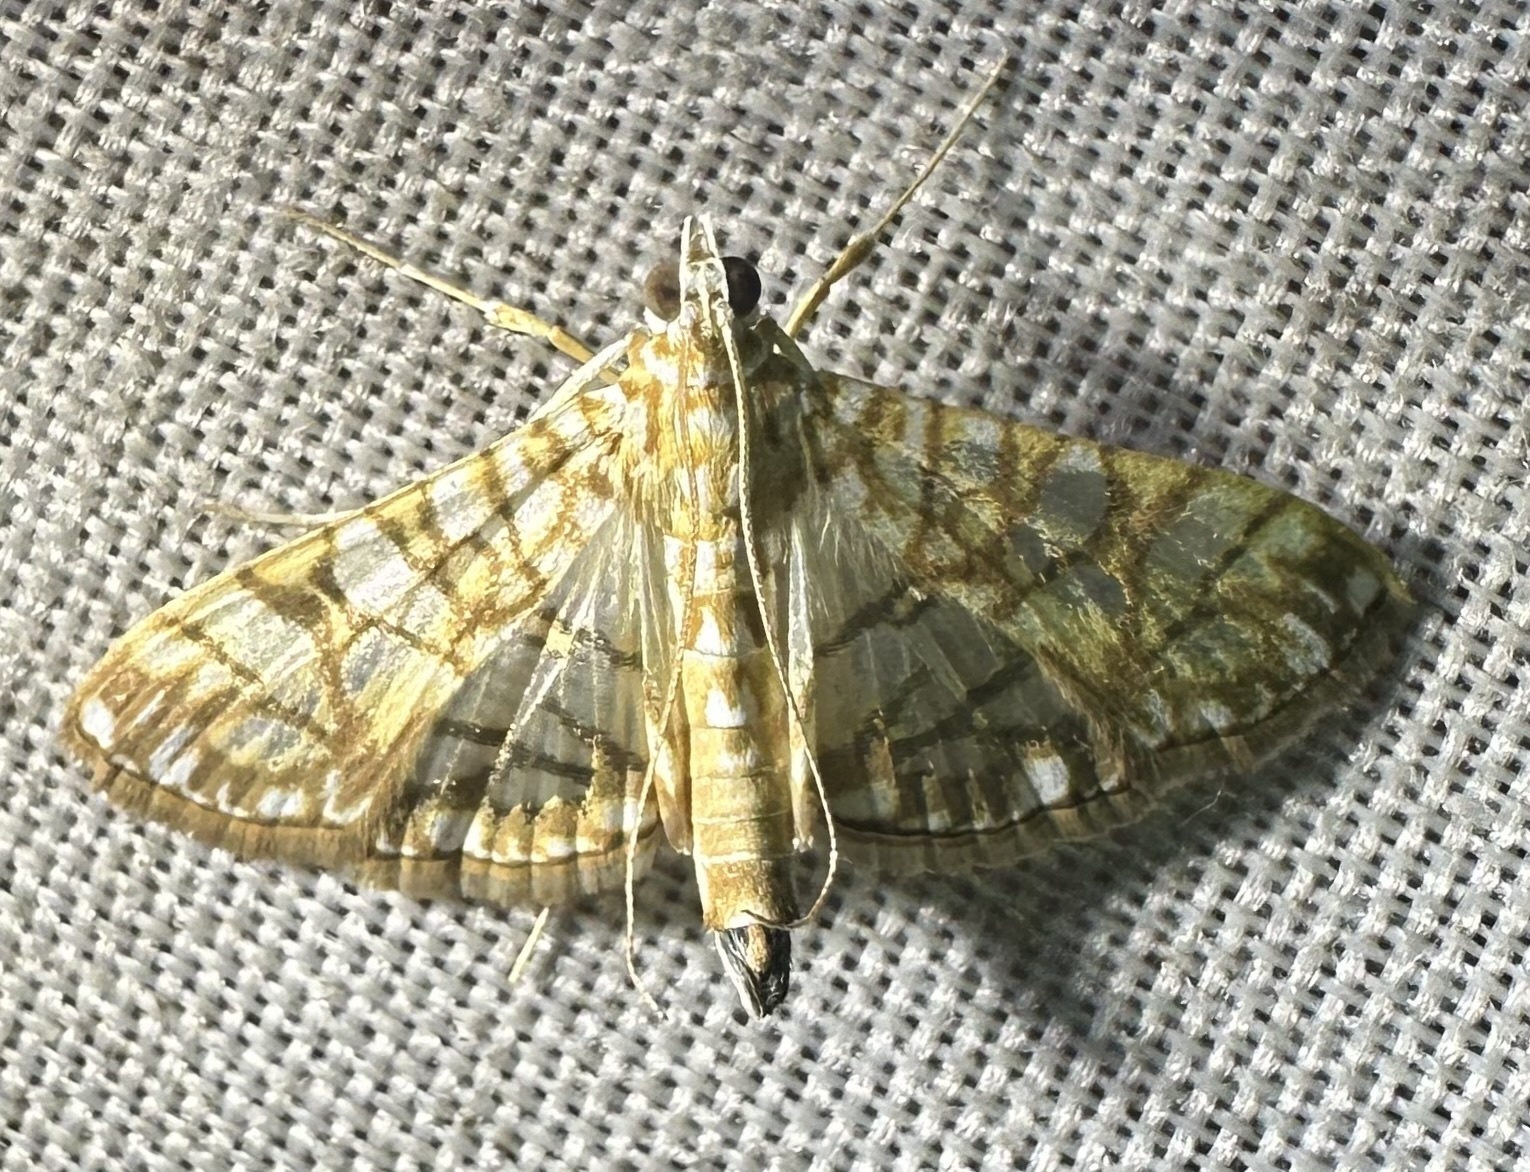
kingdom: Animalia
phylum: Arthropoda
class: Insecta
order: Lepidoptera
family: Crambidae
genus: Synclera
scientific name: Synclera traducalis
